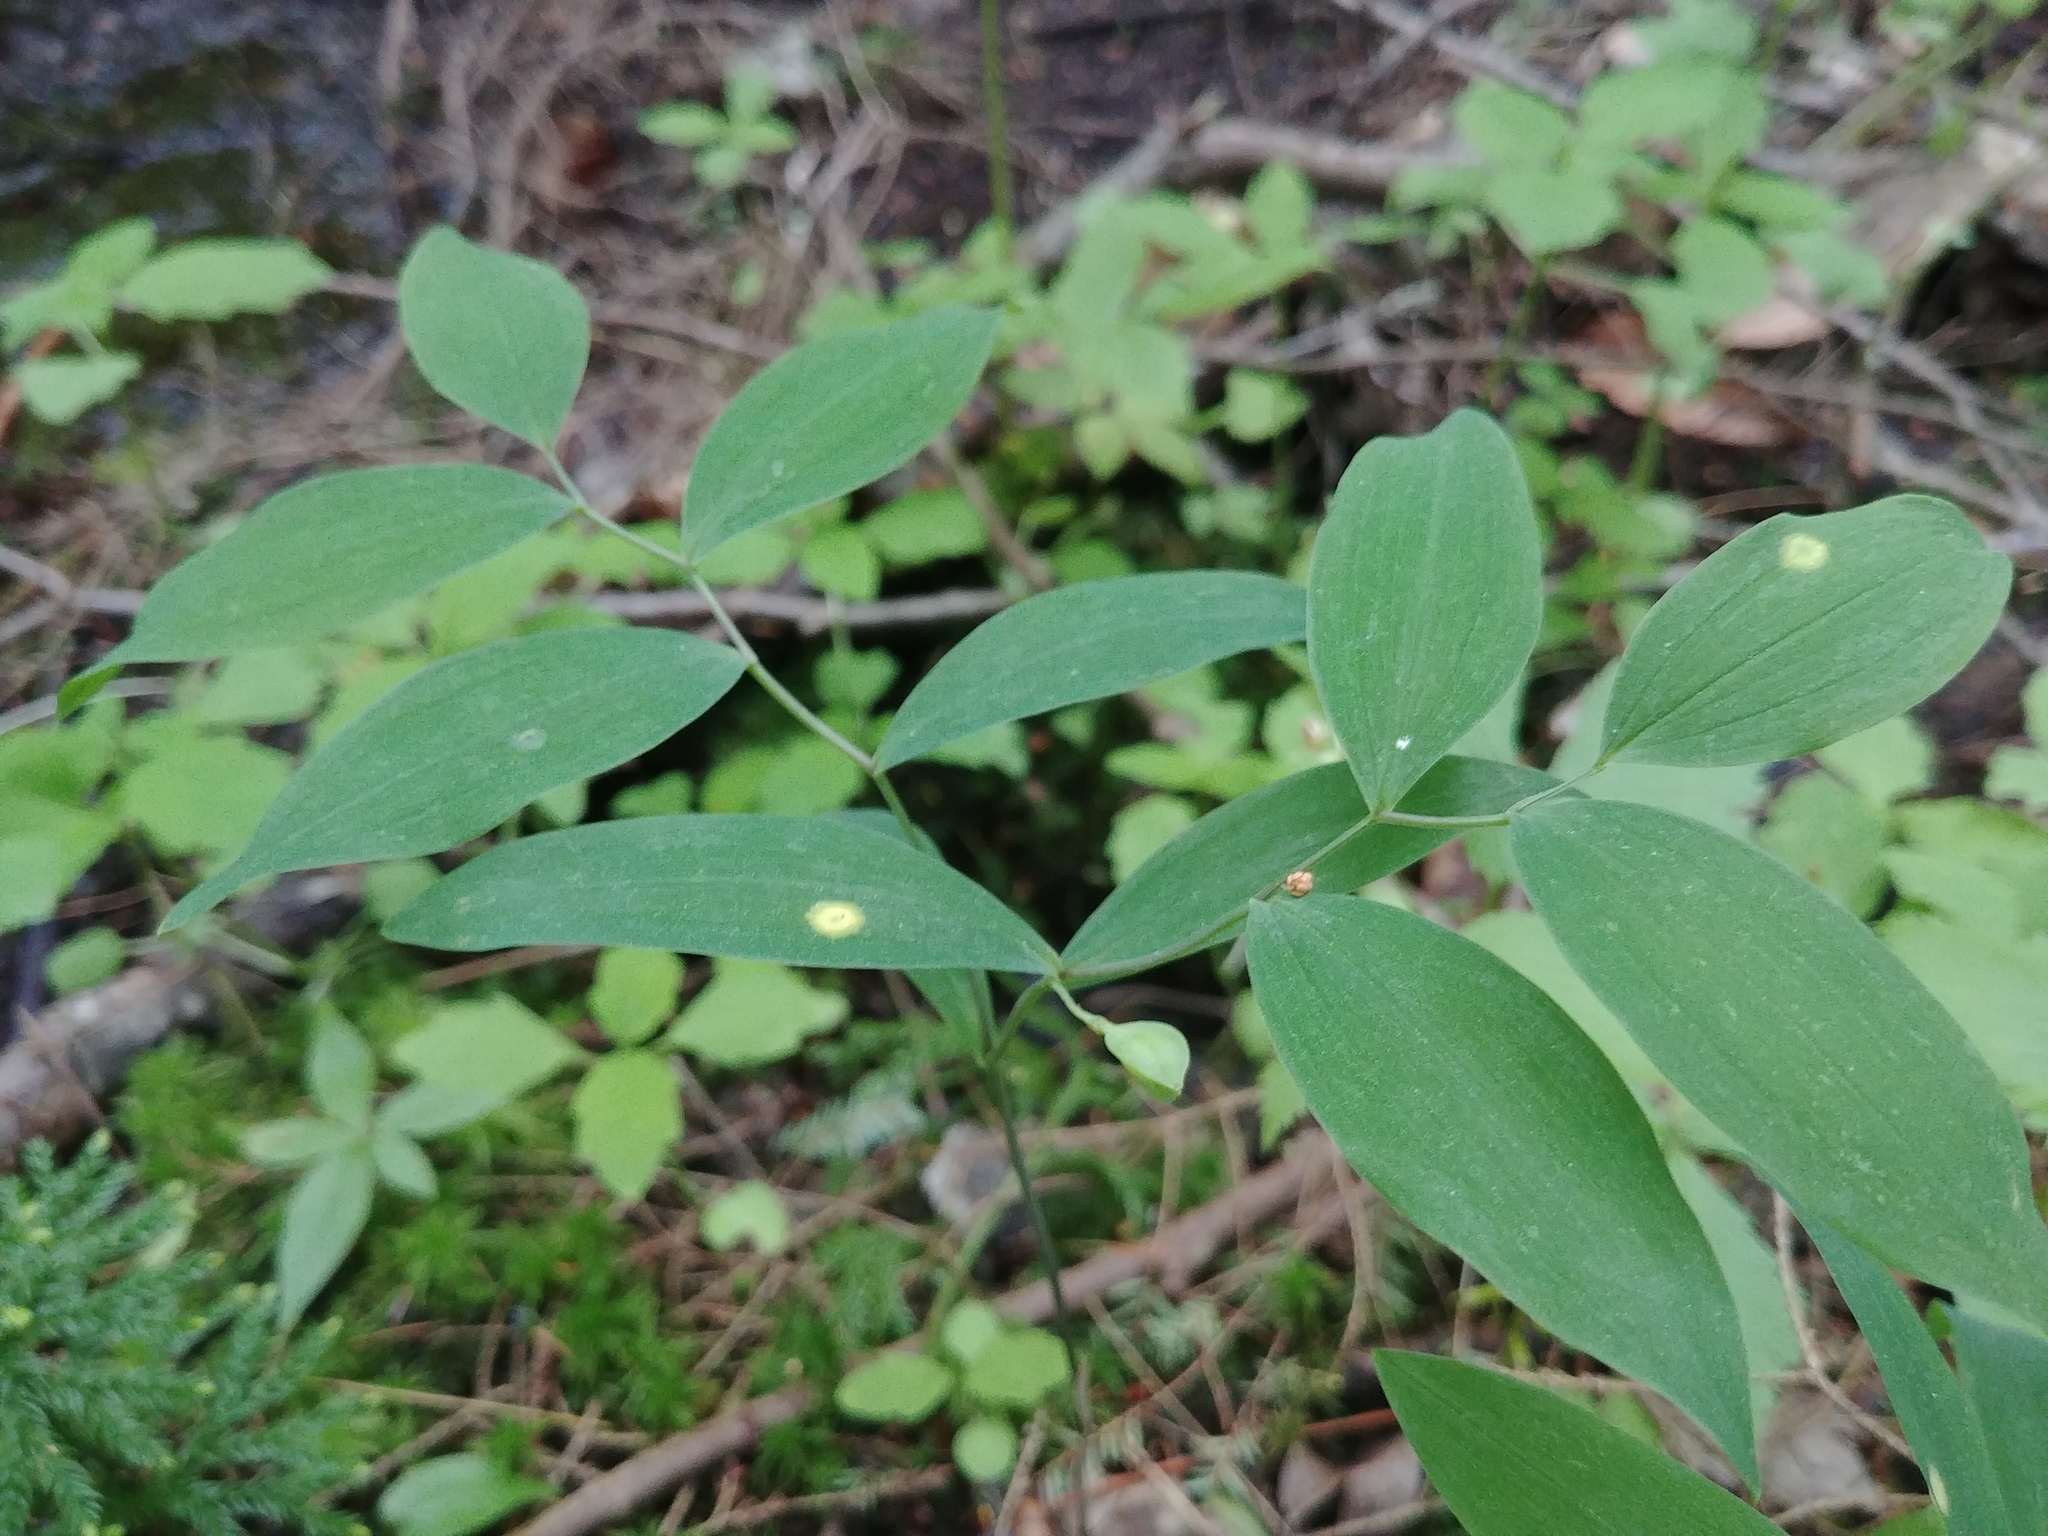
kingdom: Plantae
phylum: Tracheophyta
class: Liliopsida
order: Liliales
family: Colchicaceae
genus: Uvularia
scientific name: Uvularia sessilifolia
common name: Straw-lily
